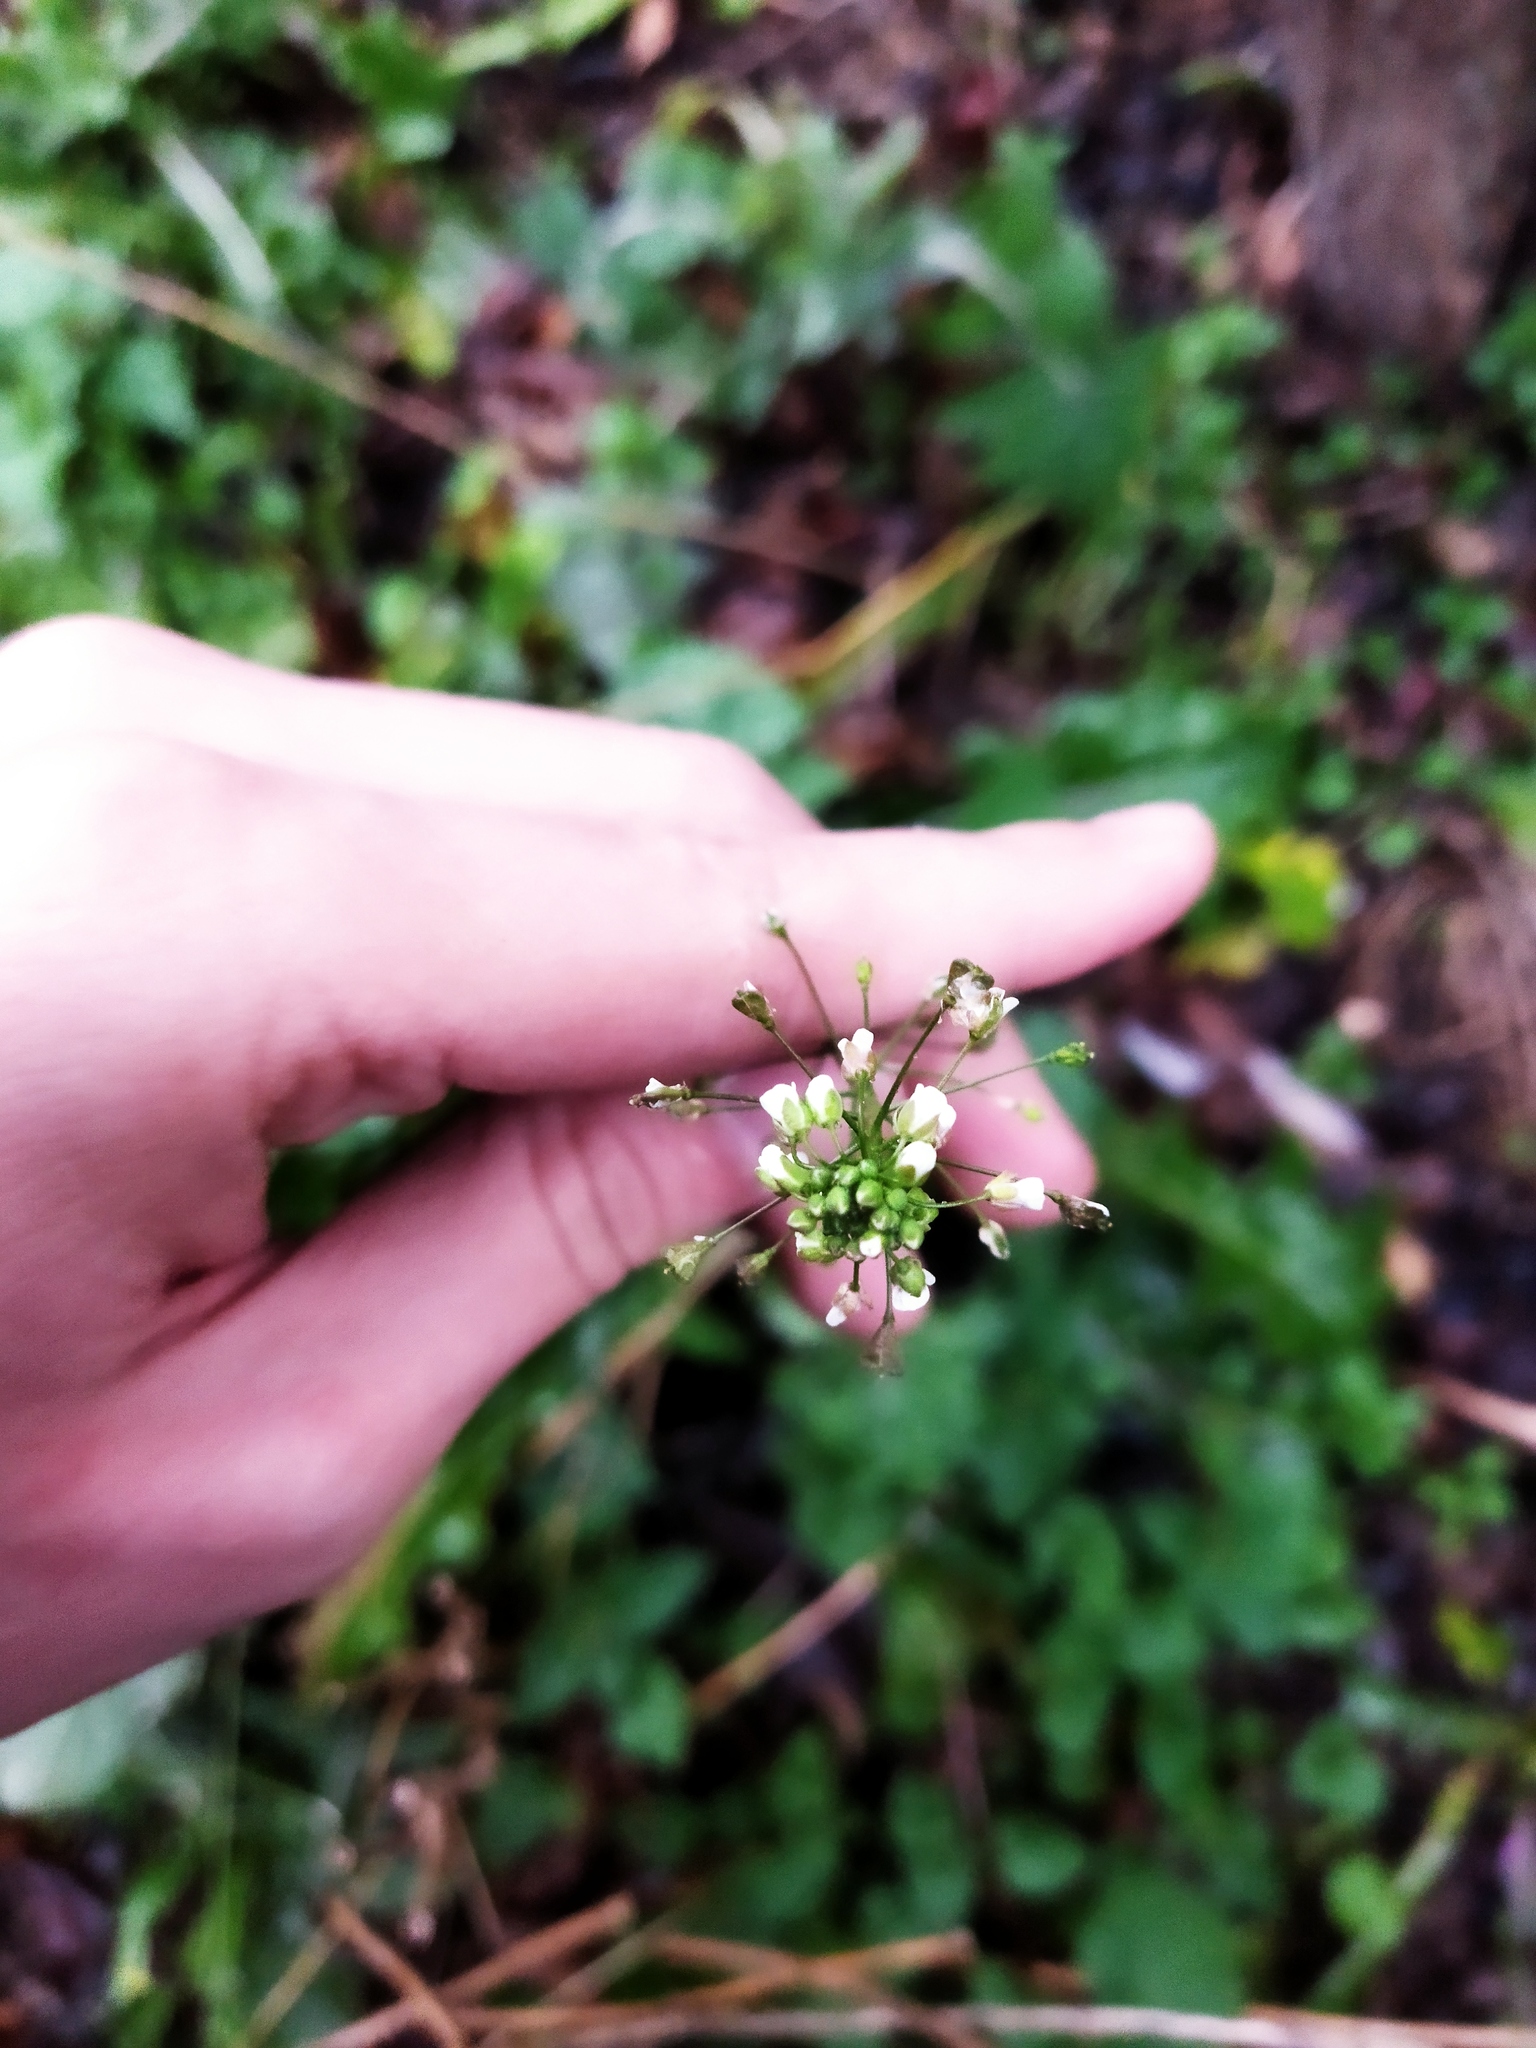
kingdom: Plantae
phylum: Tracheophyta
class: Magnoliopsida
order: Brassicales
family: Brassicaceae
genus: Capsella
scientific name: Capsella bursa-pastoris
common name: Shepherd's purse
